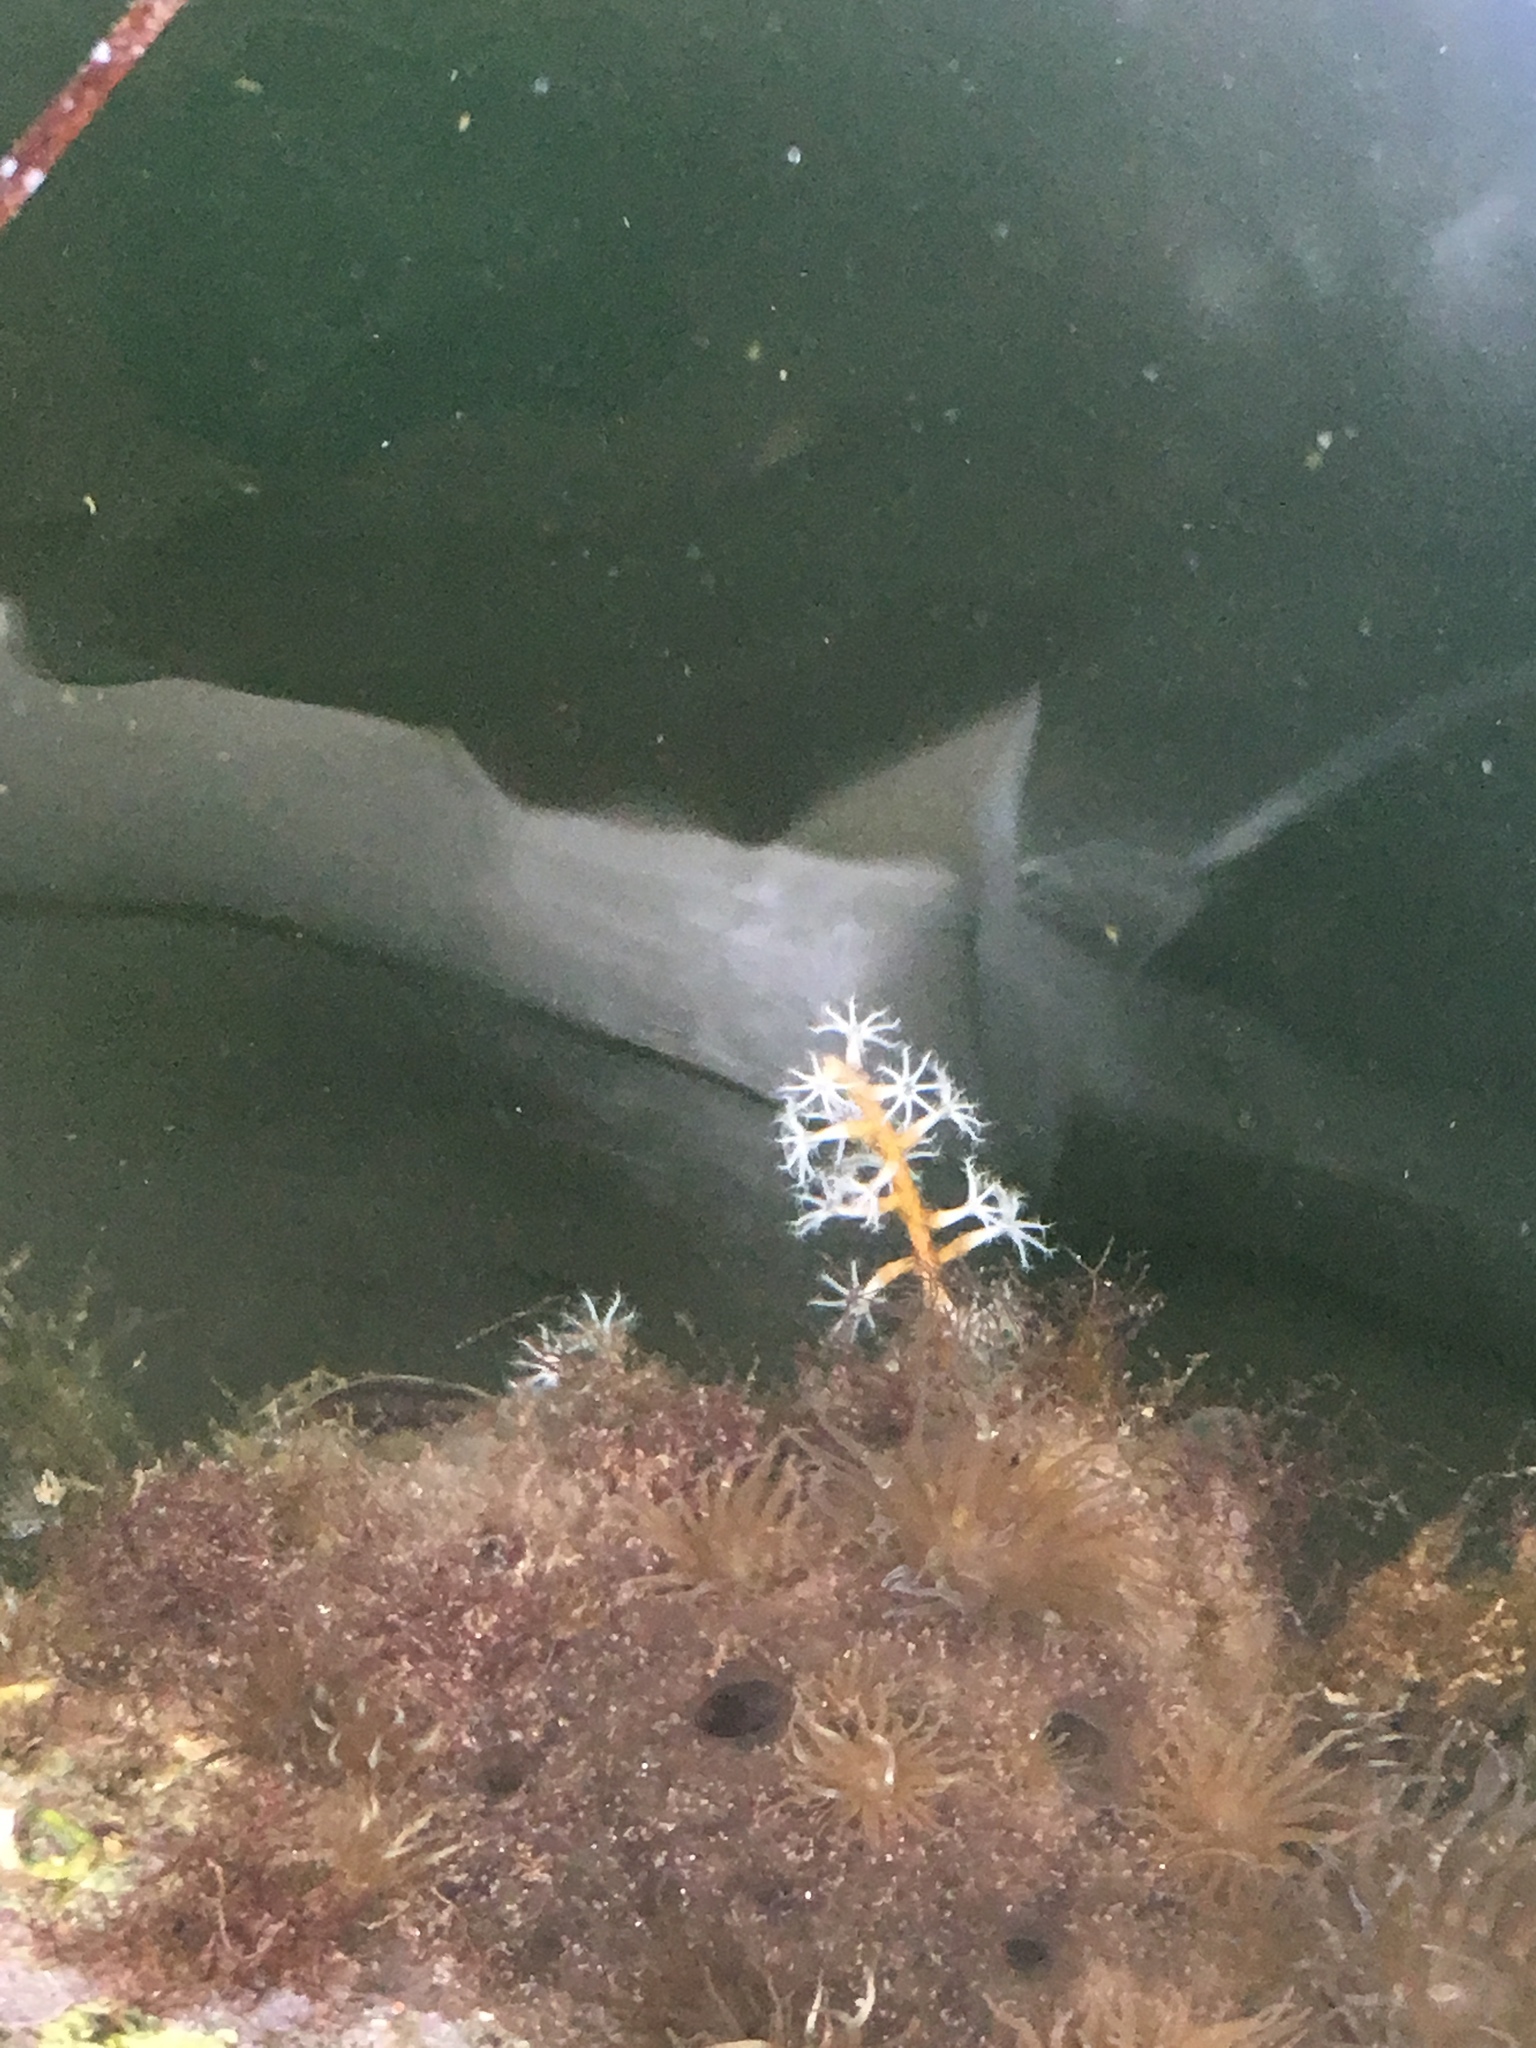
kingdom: Animalia
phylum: Cnidaria
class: Anthozoa
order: Actiniaria
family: Aiptasiidae
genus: Exaiptasia
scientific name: Exaiptasia diaphana
